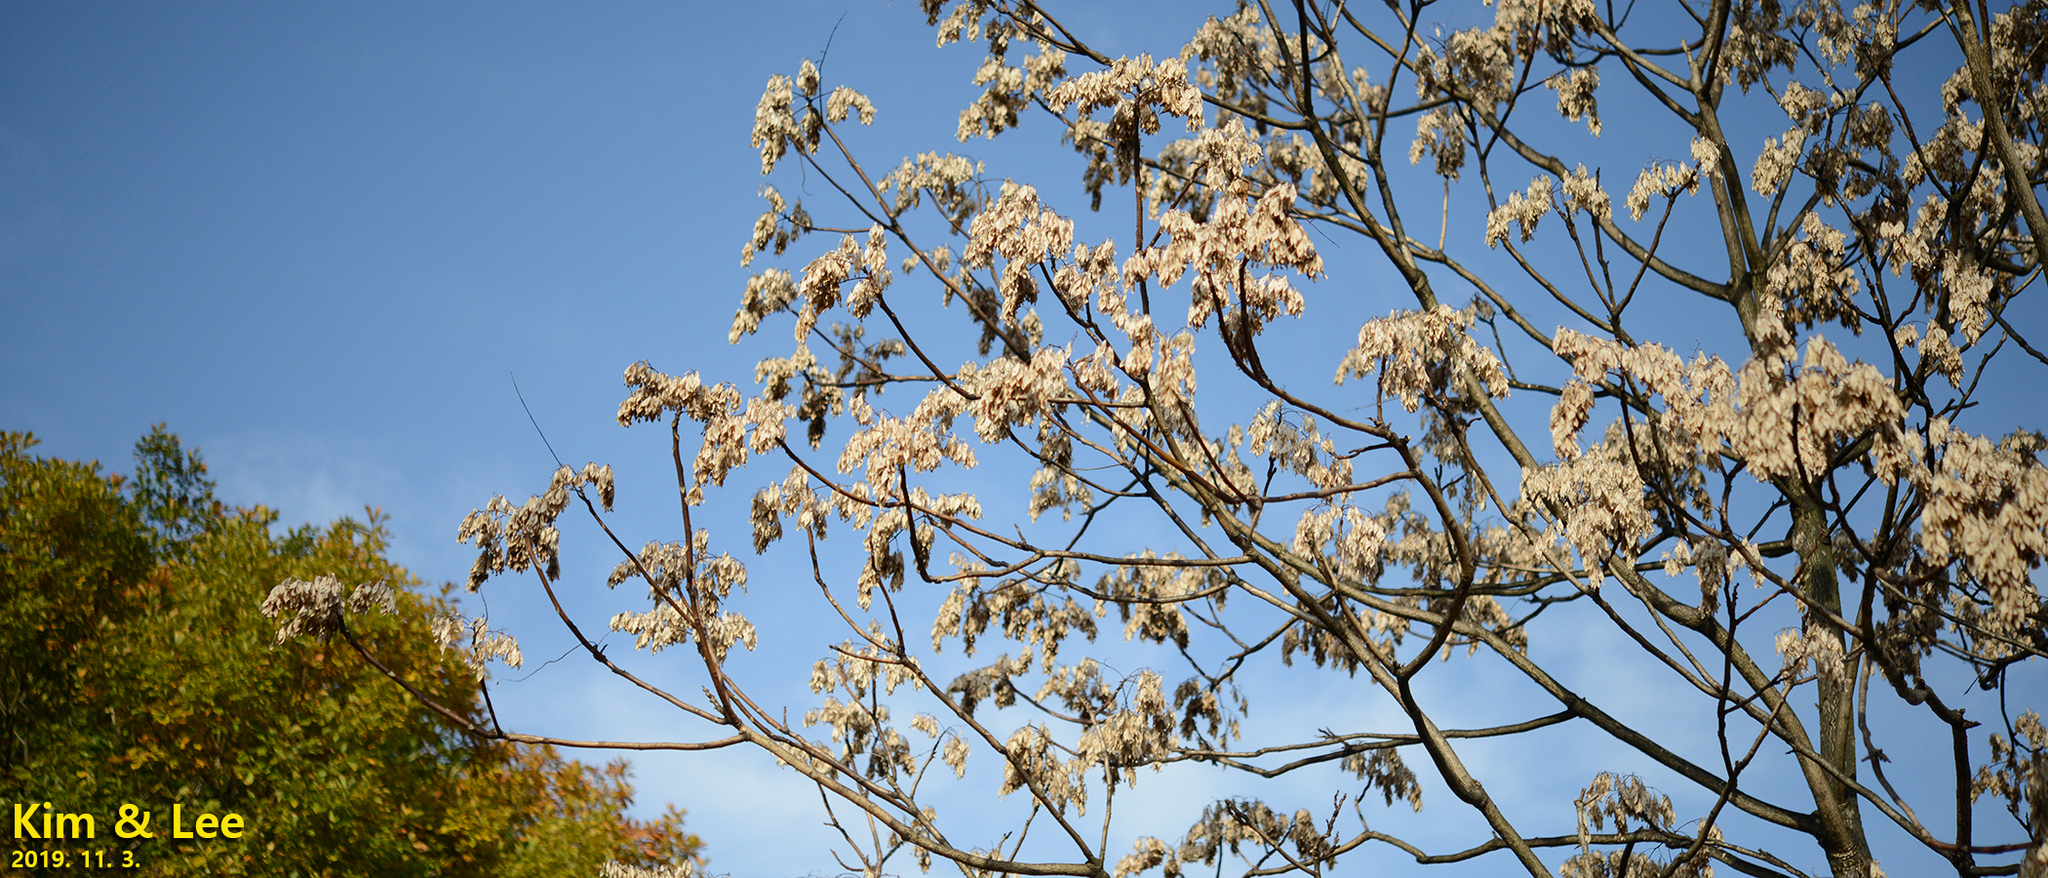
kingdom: Plantae
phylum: Tracheophyta
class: Magnoliopsida
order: Sapindales
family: Simaroubaceae
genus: Ailanthus
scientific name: Ailanthus altissima
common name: Tree-of-heaven
